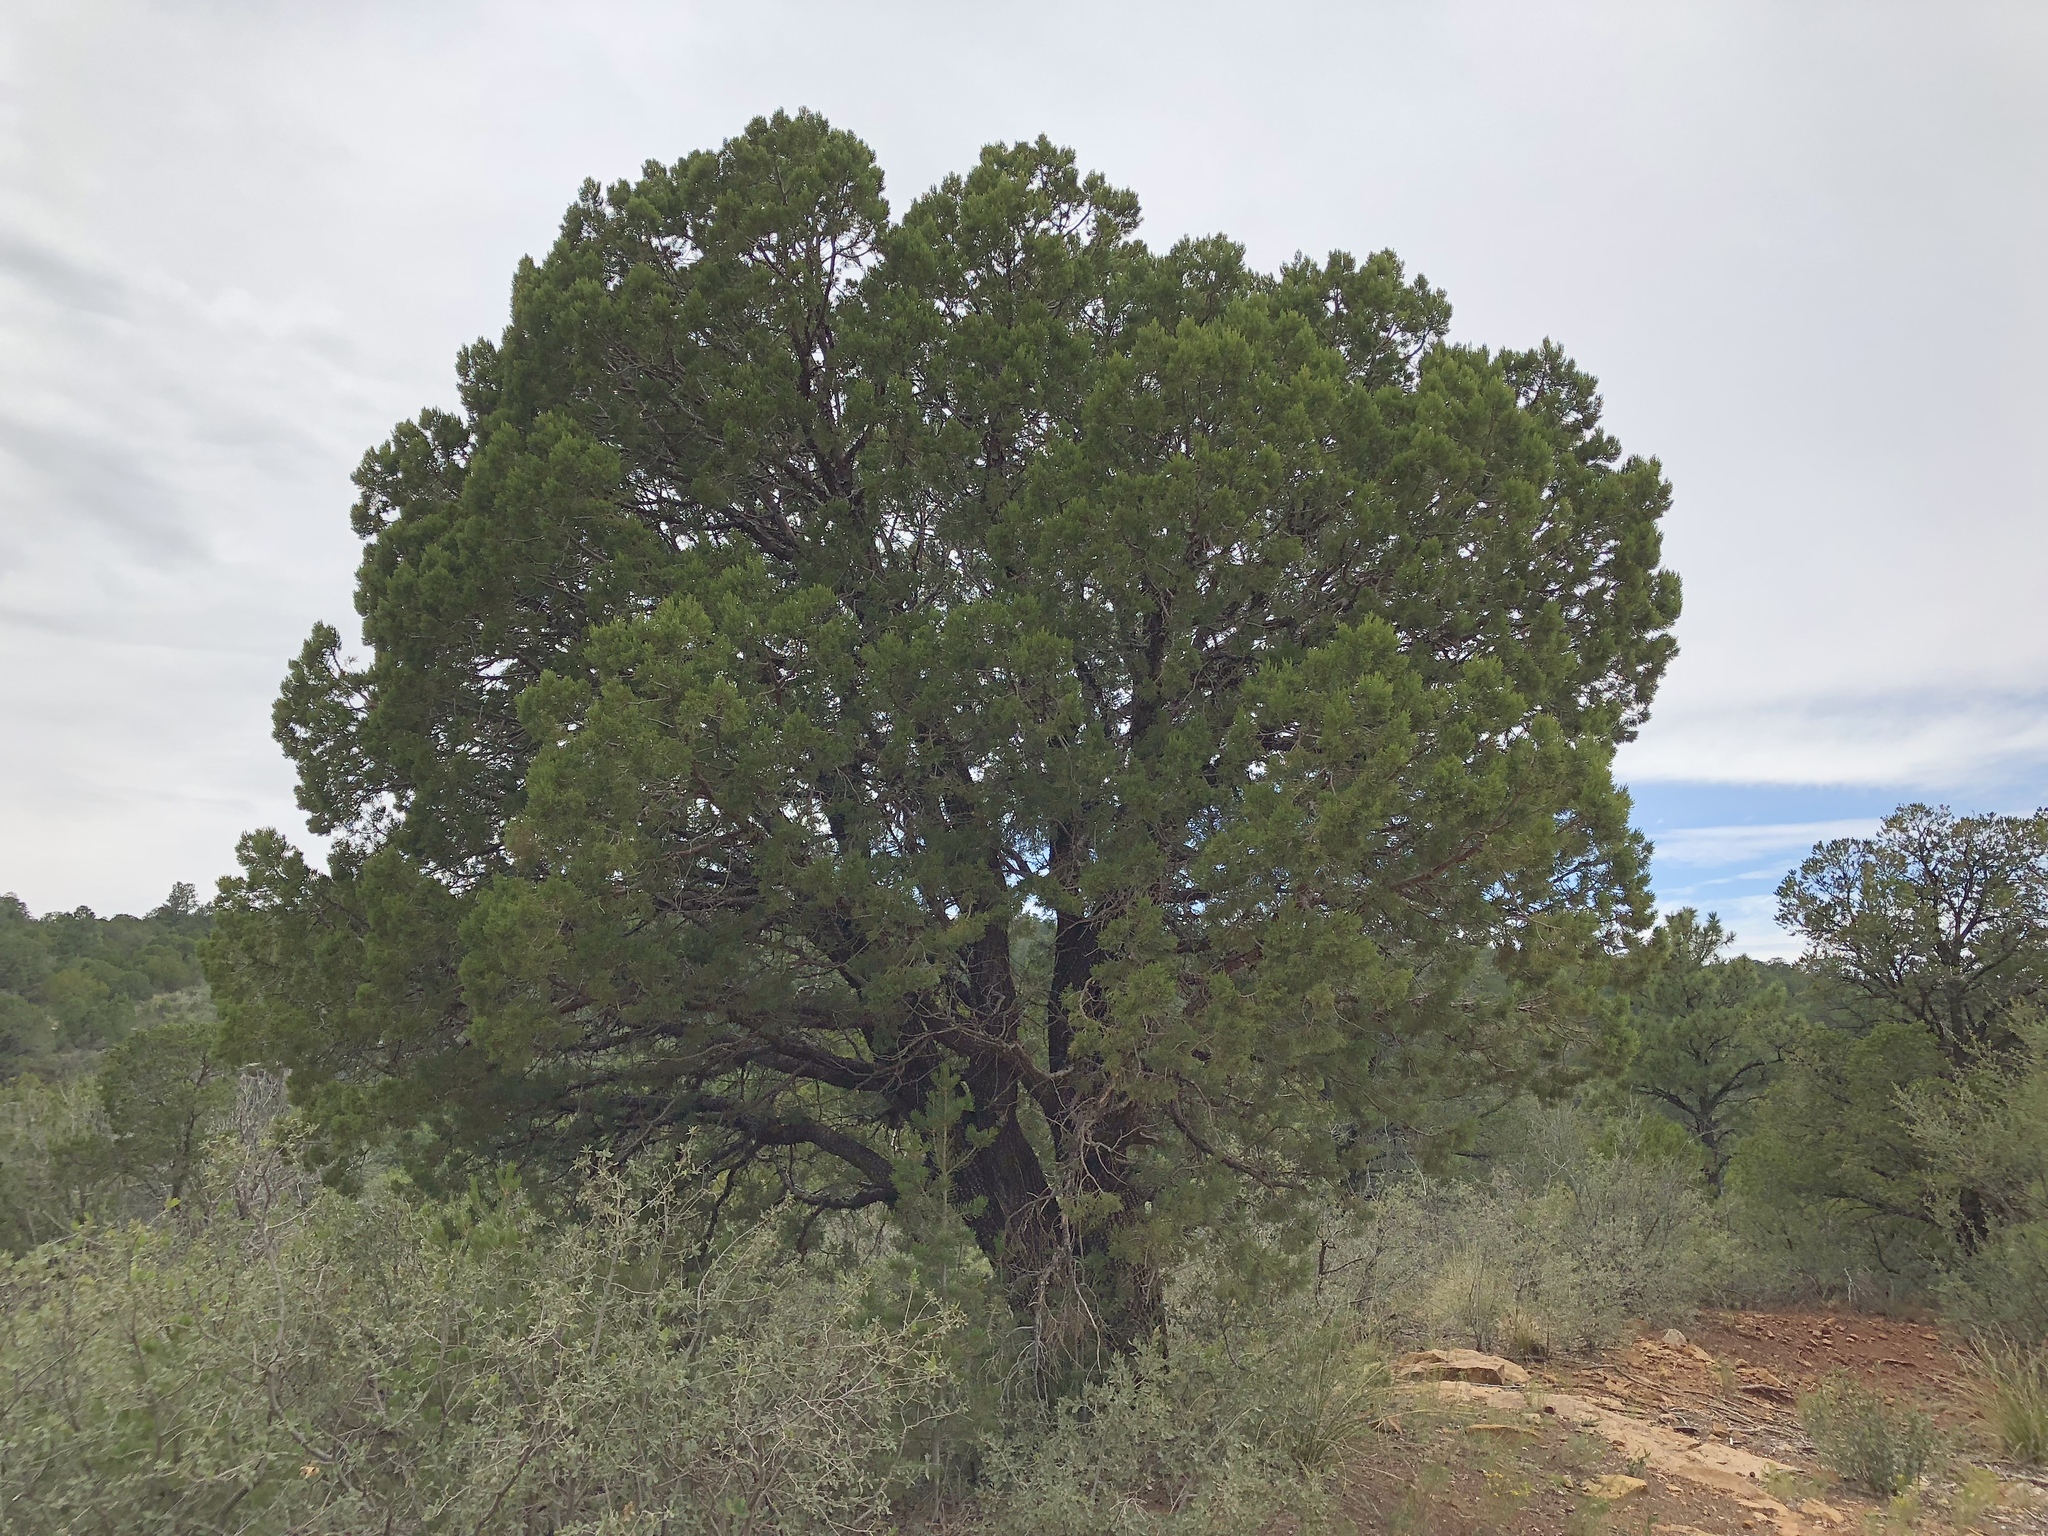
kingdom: Plantae
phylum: Tracheophyta
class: Pinopsida
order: Pinales
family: Cupressaceae
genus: Juniperus
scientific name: Juniperus deppeana
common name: Alligator juniper
